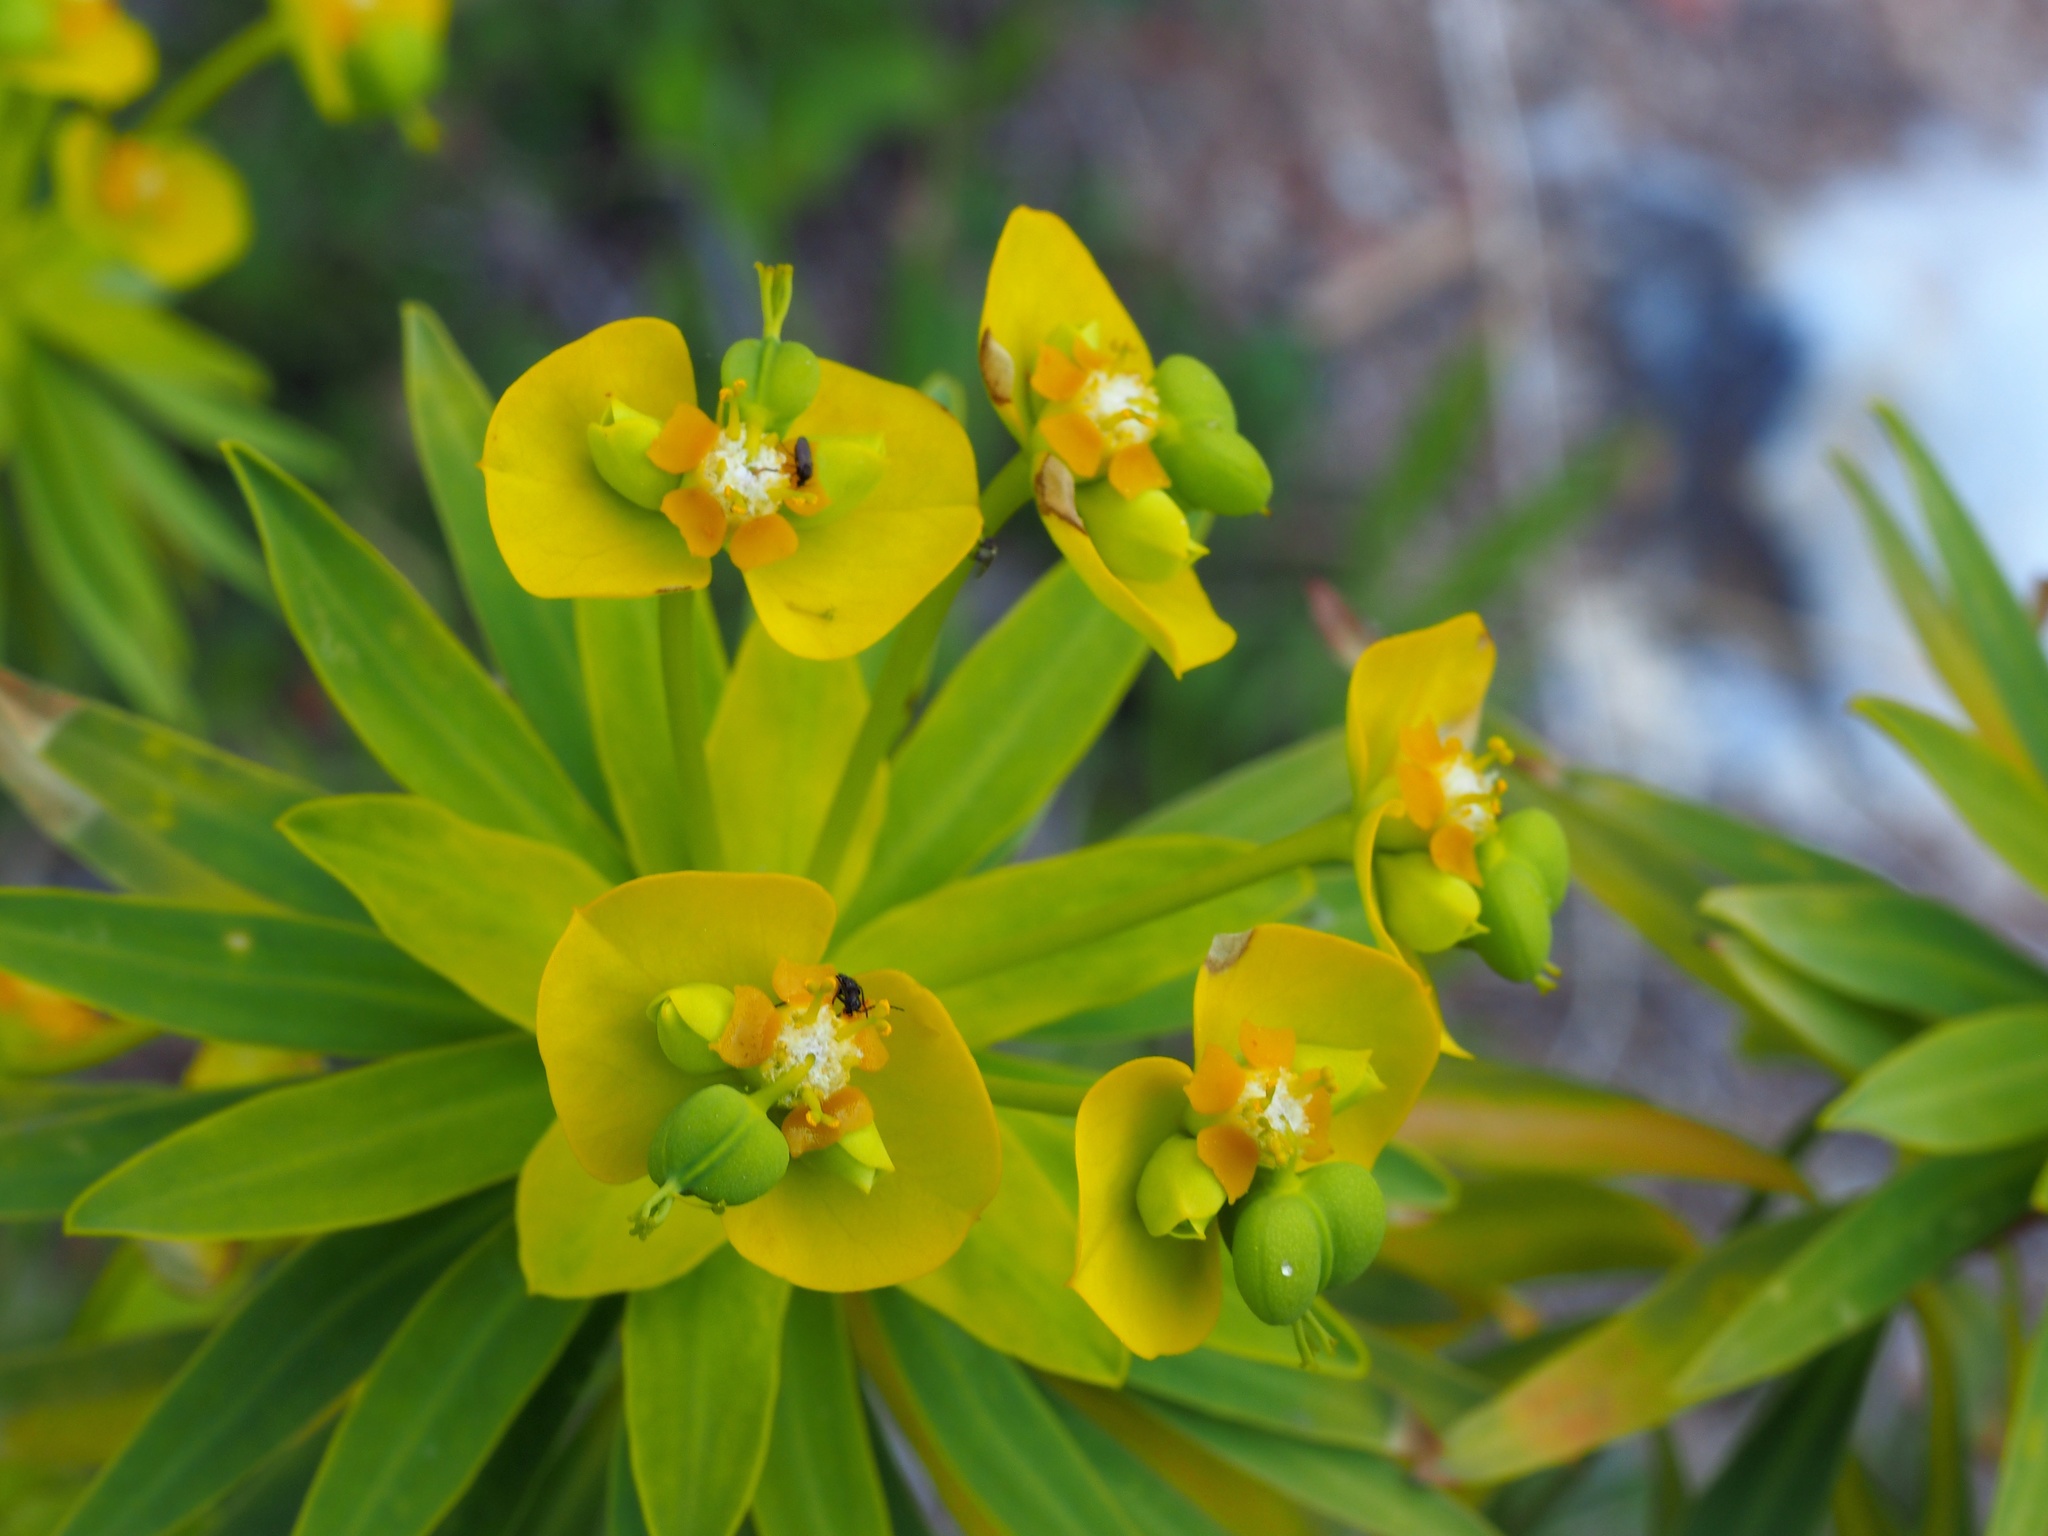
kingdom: Plantae
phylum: Tracheophyta
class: Magnoliopsida
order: Malpighiales
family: Euphorbiaceae
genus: Euphorbia
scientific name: Euphorbia dendroides
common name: Tree spurge
